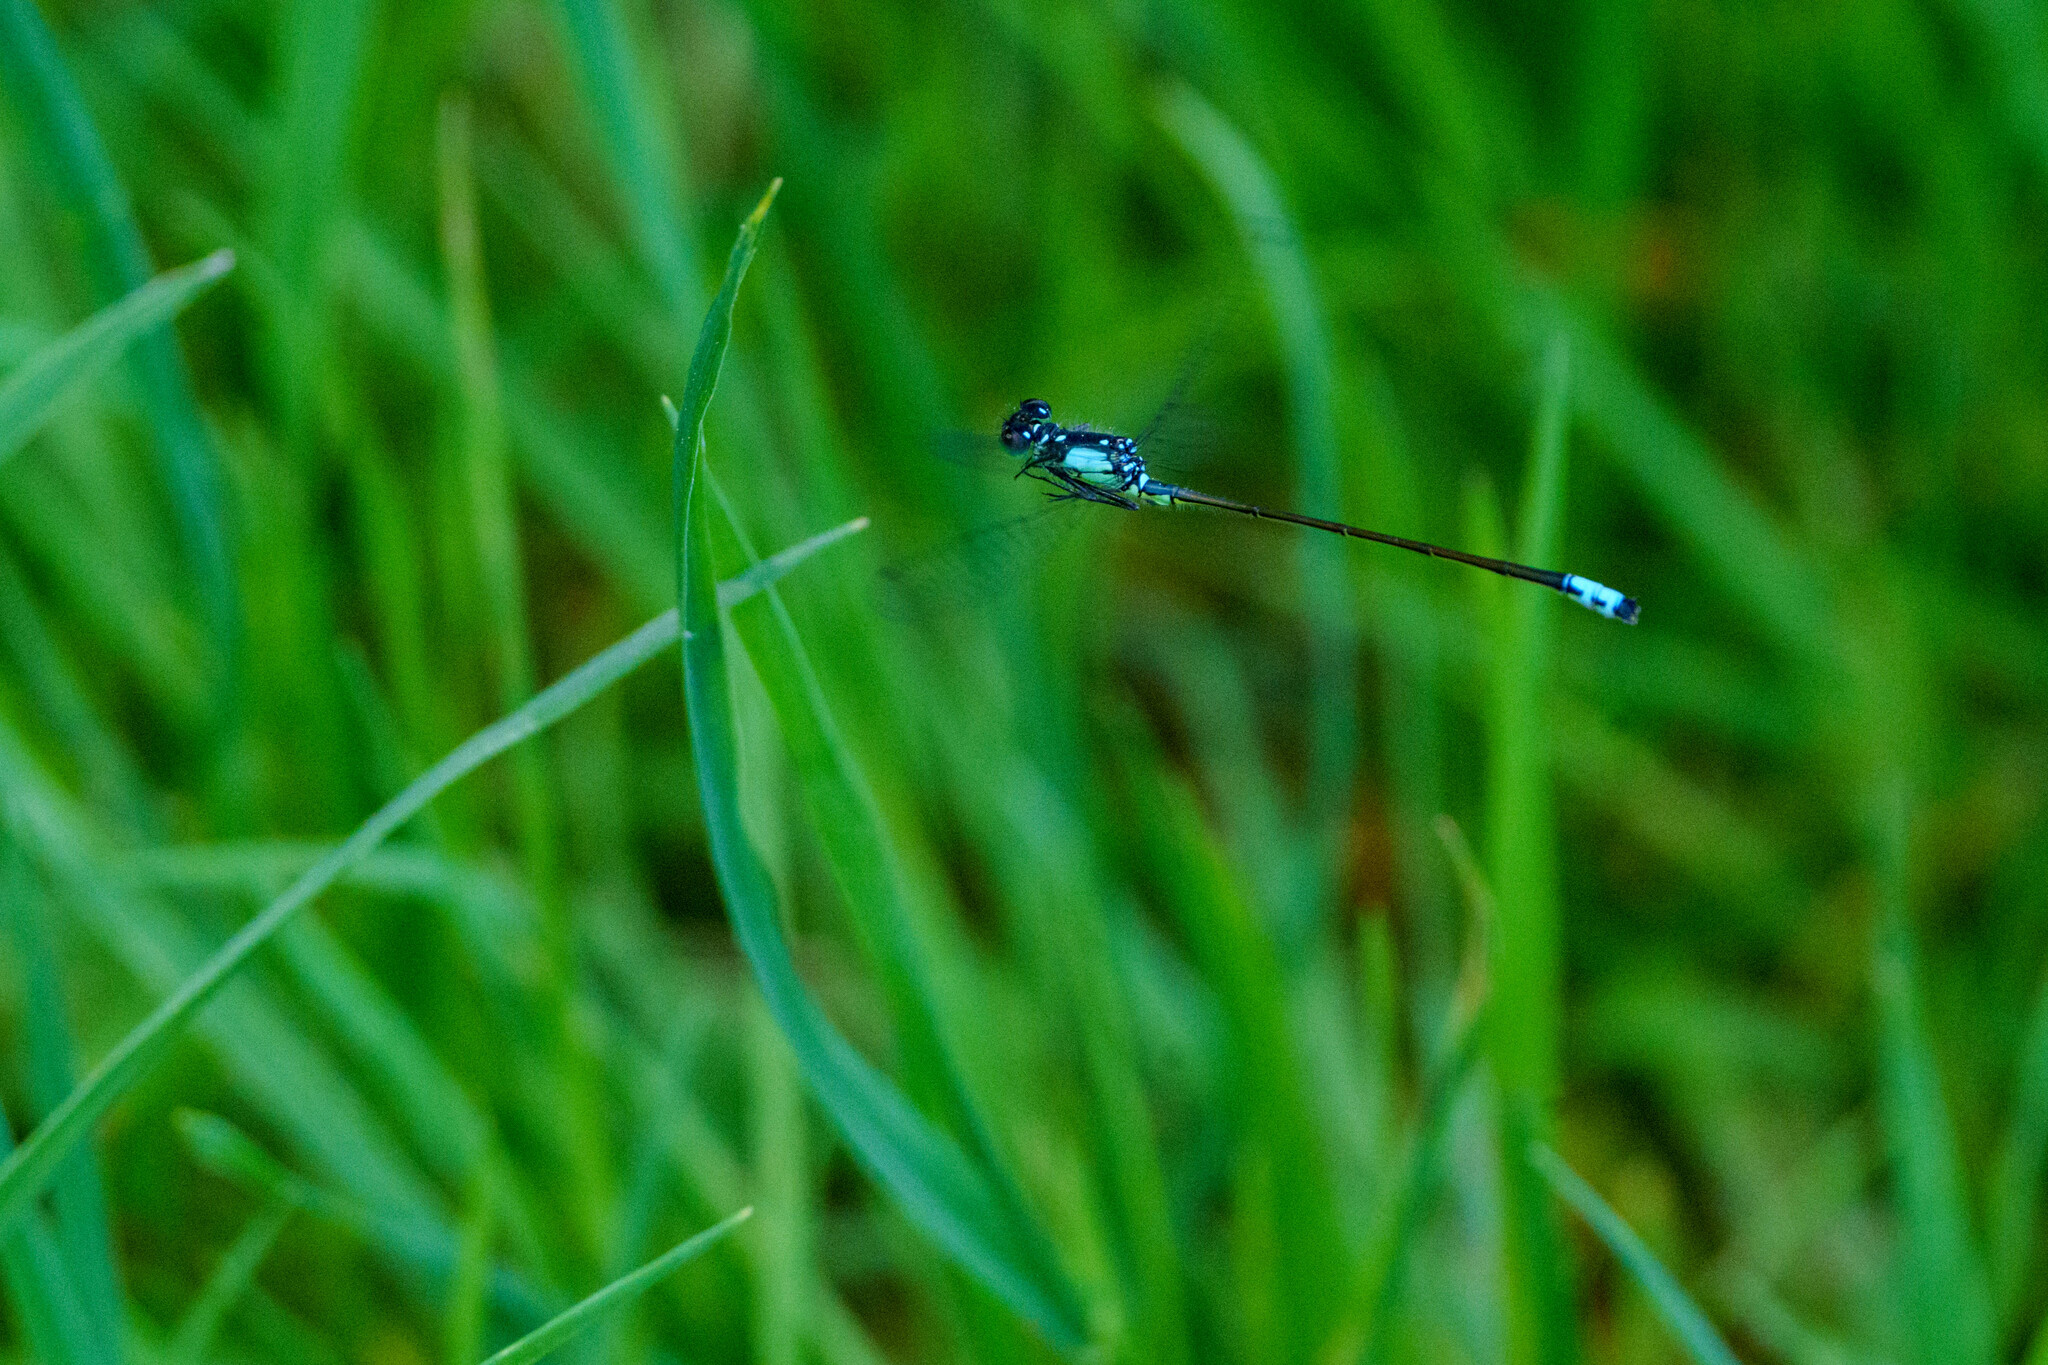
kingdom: Animalia
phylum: Arthropoda
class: Insecta
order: Odonata
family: Coenagrionidae
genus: Ischnura
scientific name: Ischnura cervula
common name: Pacific forktail
